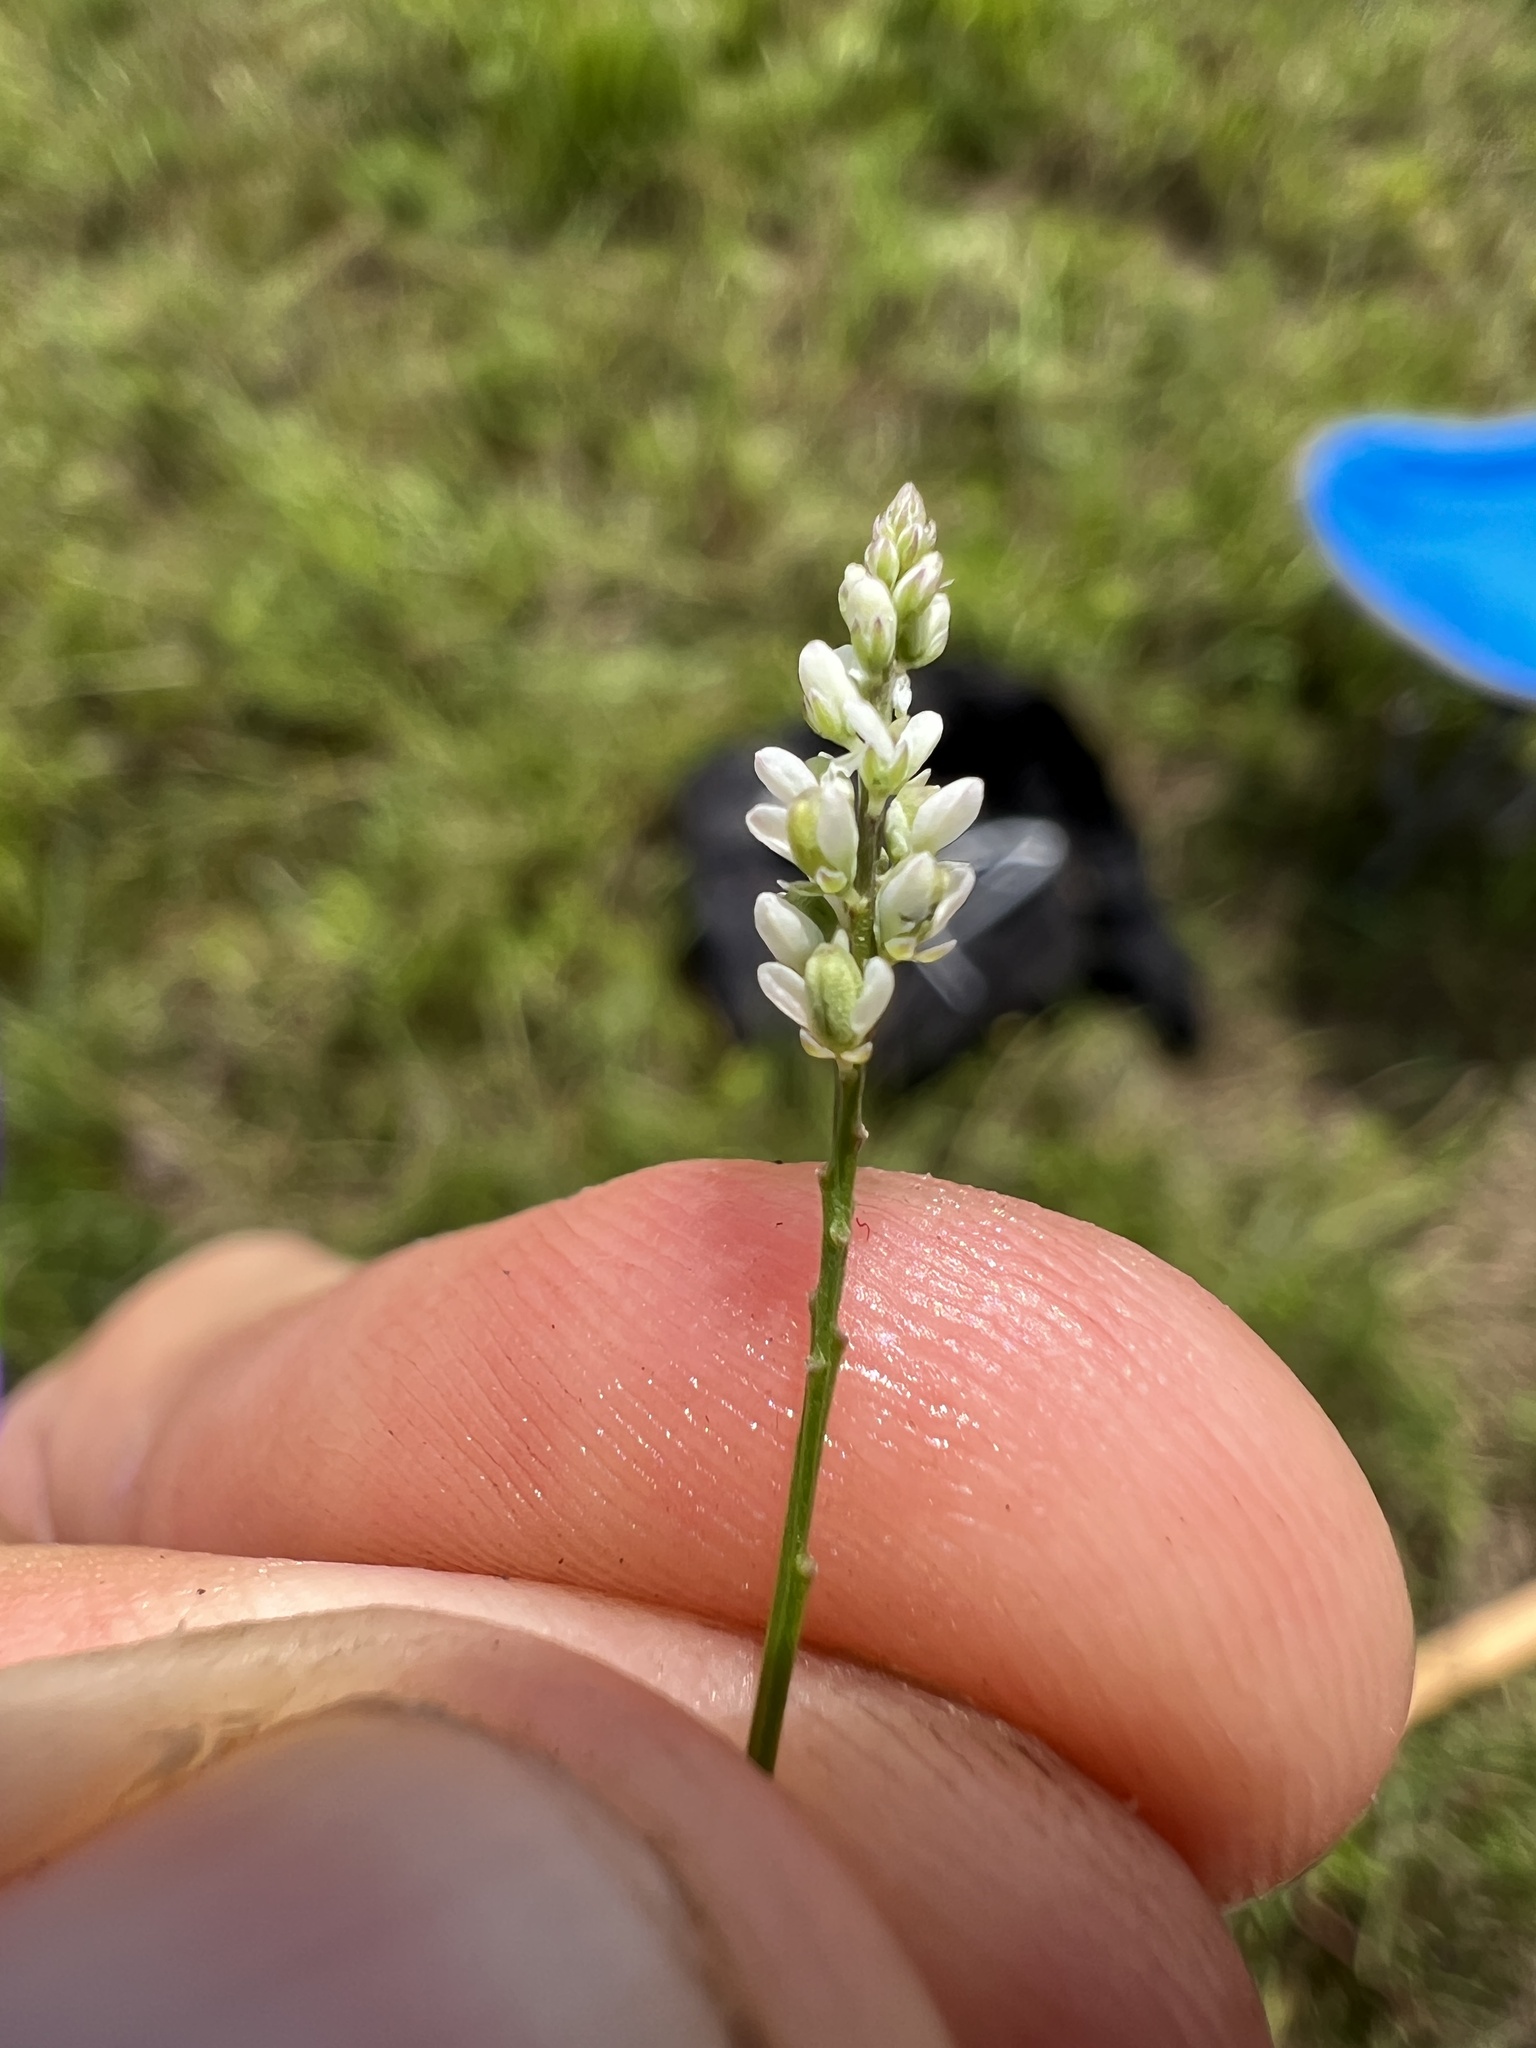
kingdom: Plantae
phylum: Tracheophyta
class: Magnoliopsida
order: Fabales
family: Polygalaceae
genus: Polygala
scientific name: Polygala ambigua
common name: Alternate milkwort
